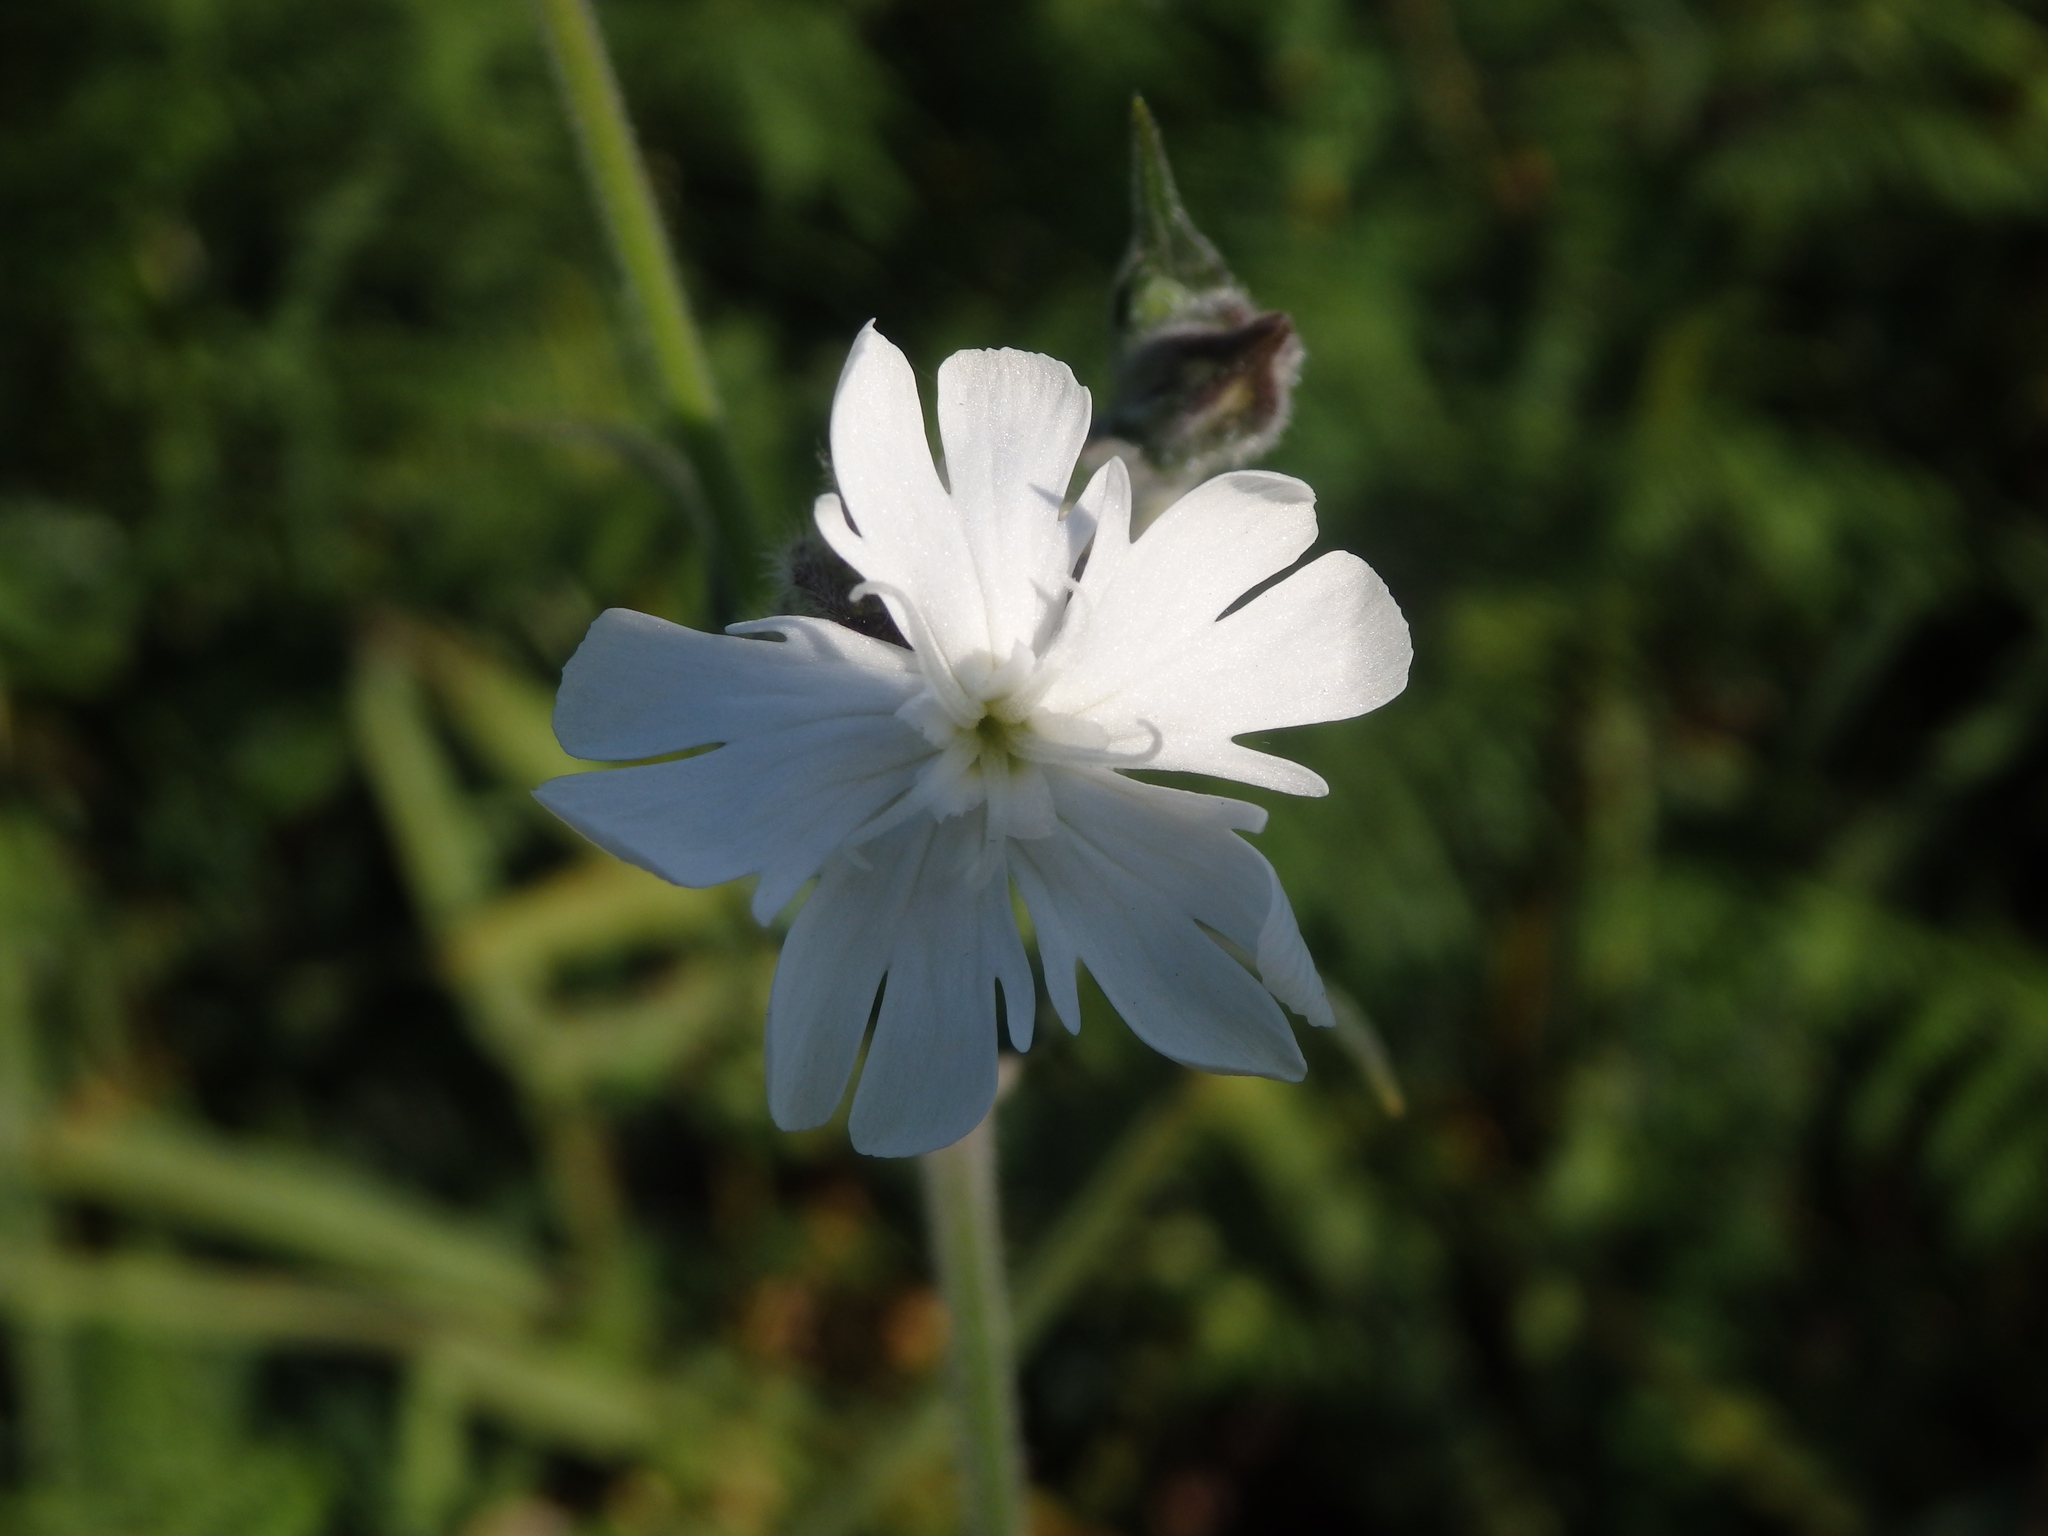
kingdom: Plantae
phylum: Tracheophyta
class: Magnoliopsida
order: Caryophyllales
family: Caryophyllaceae
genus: Silene
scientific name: Silene latifolia
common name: White campion
